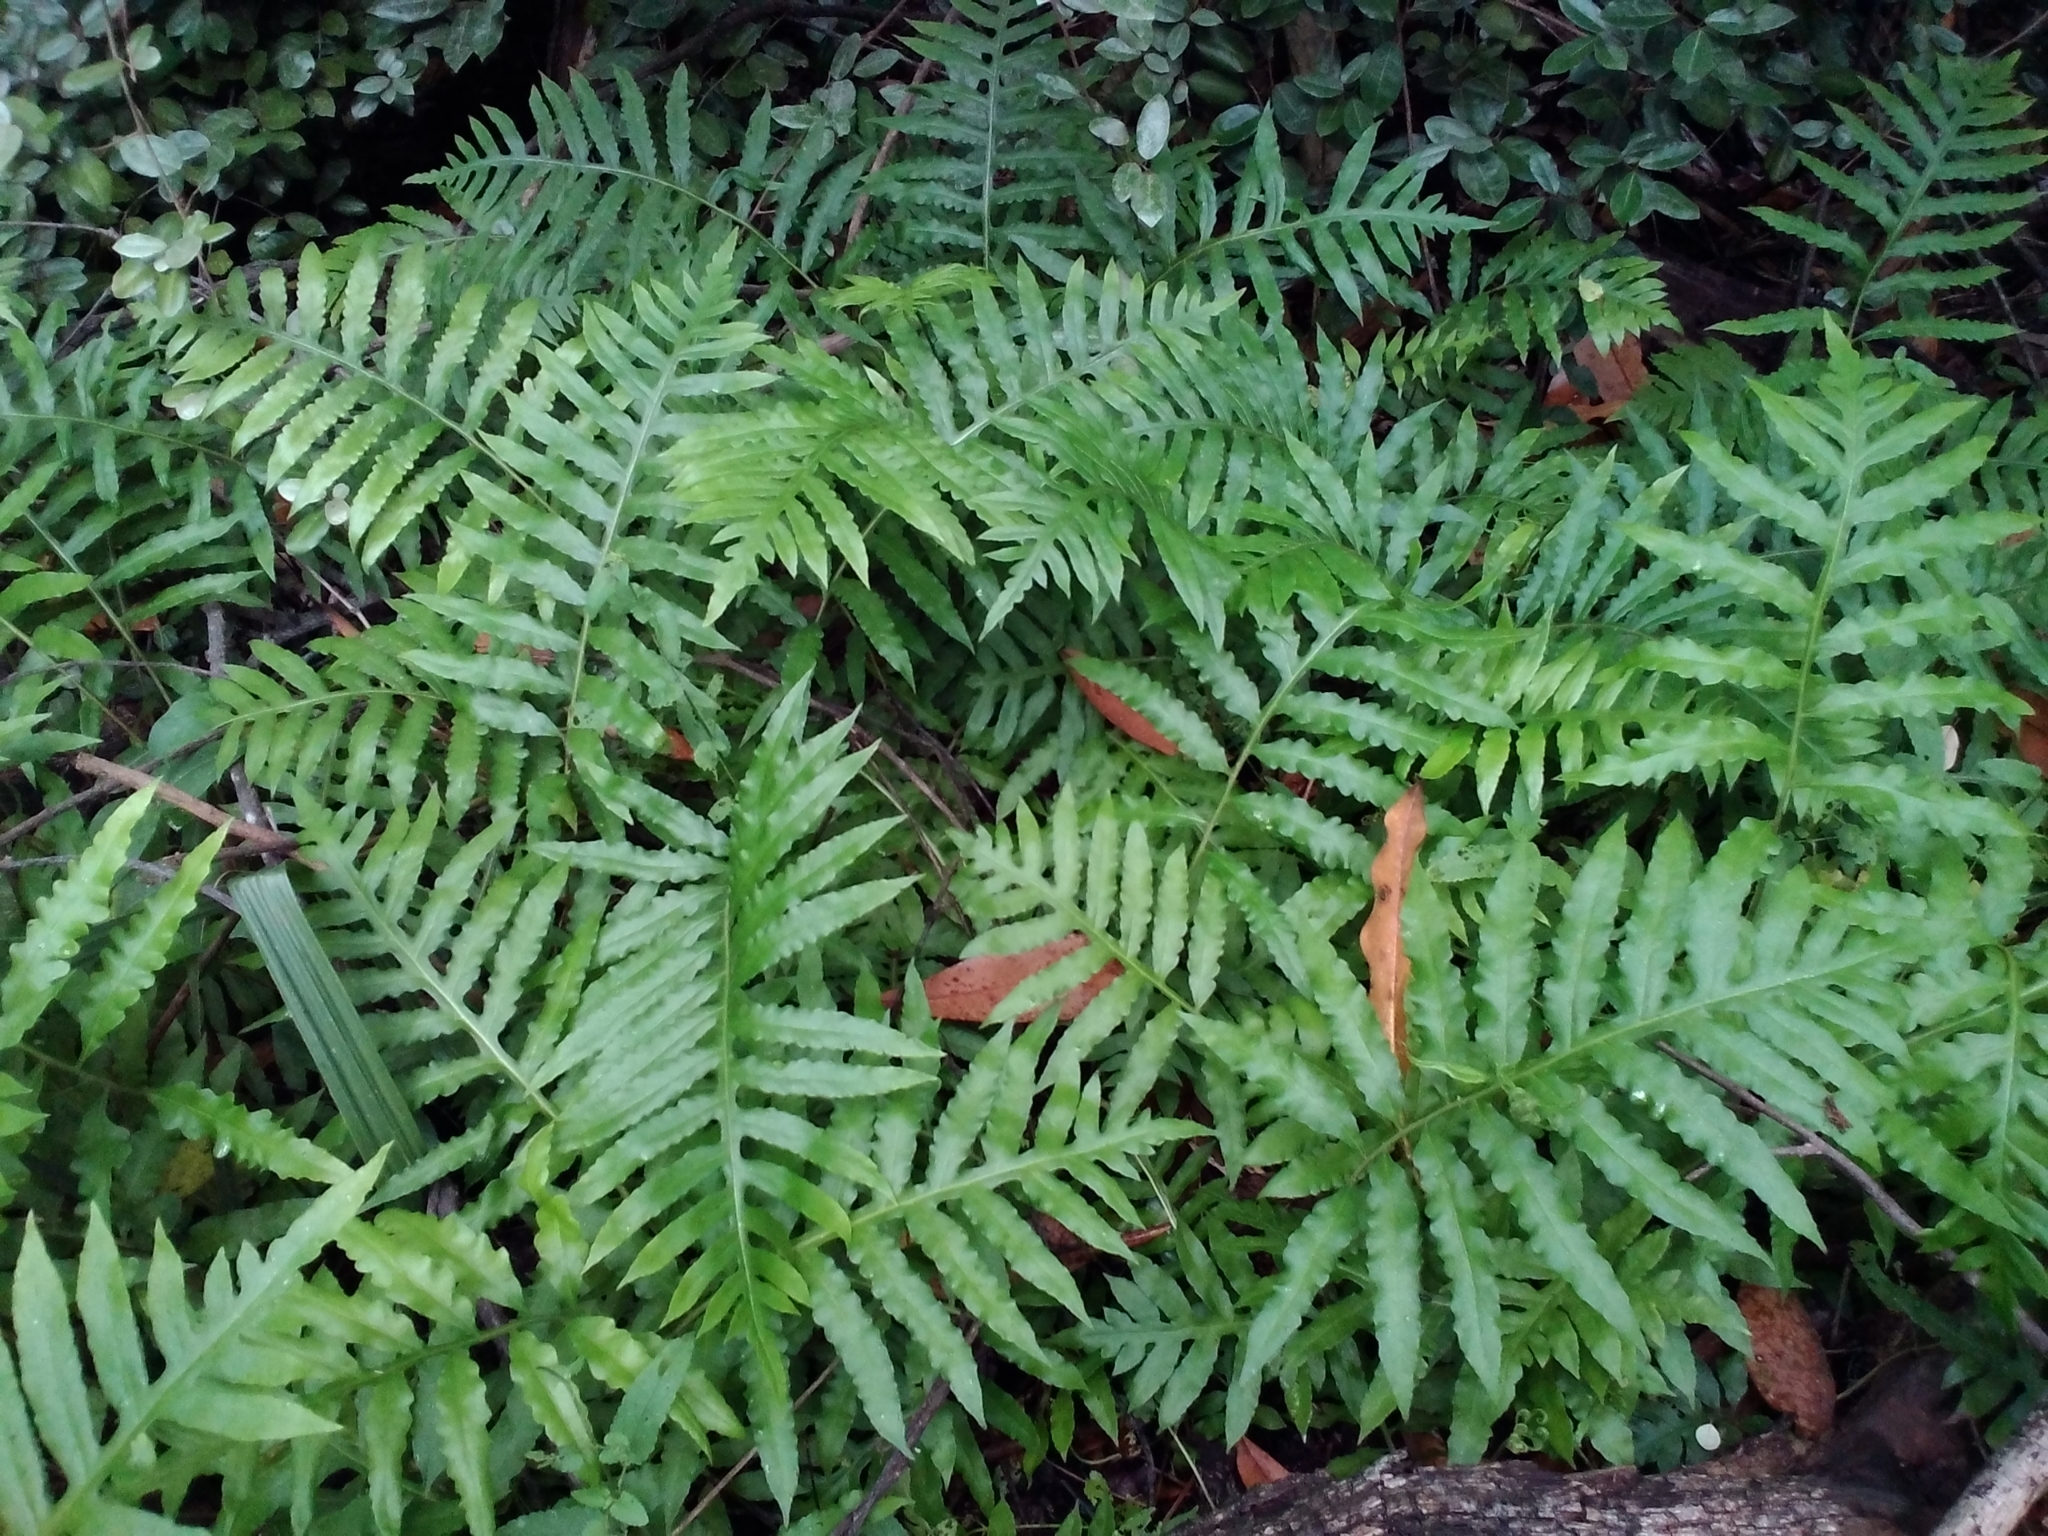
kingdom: Plantae
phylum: Tracheophyta
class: Polypodiopsida
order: Polypodiales
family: Blechnaceae
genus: Lorinseria
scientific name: Lorinseria areolata
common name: Dwarf chain fern
